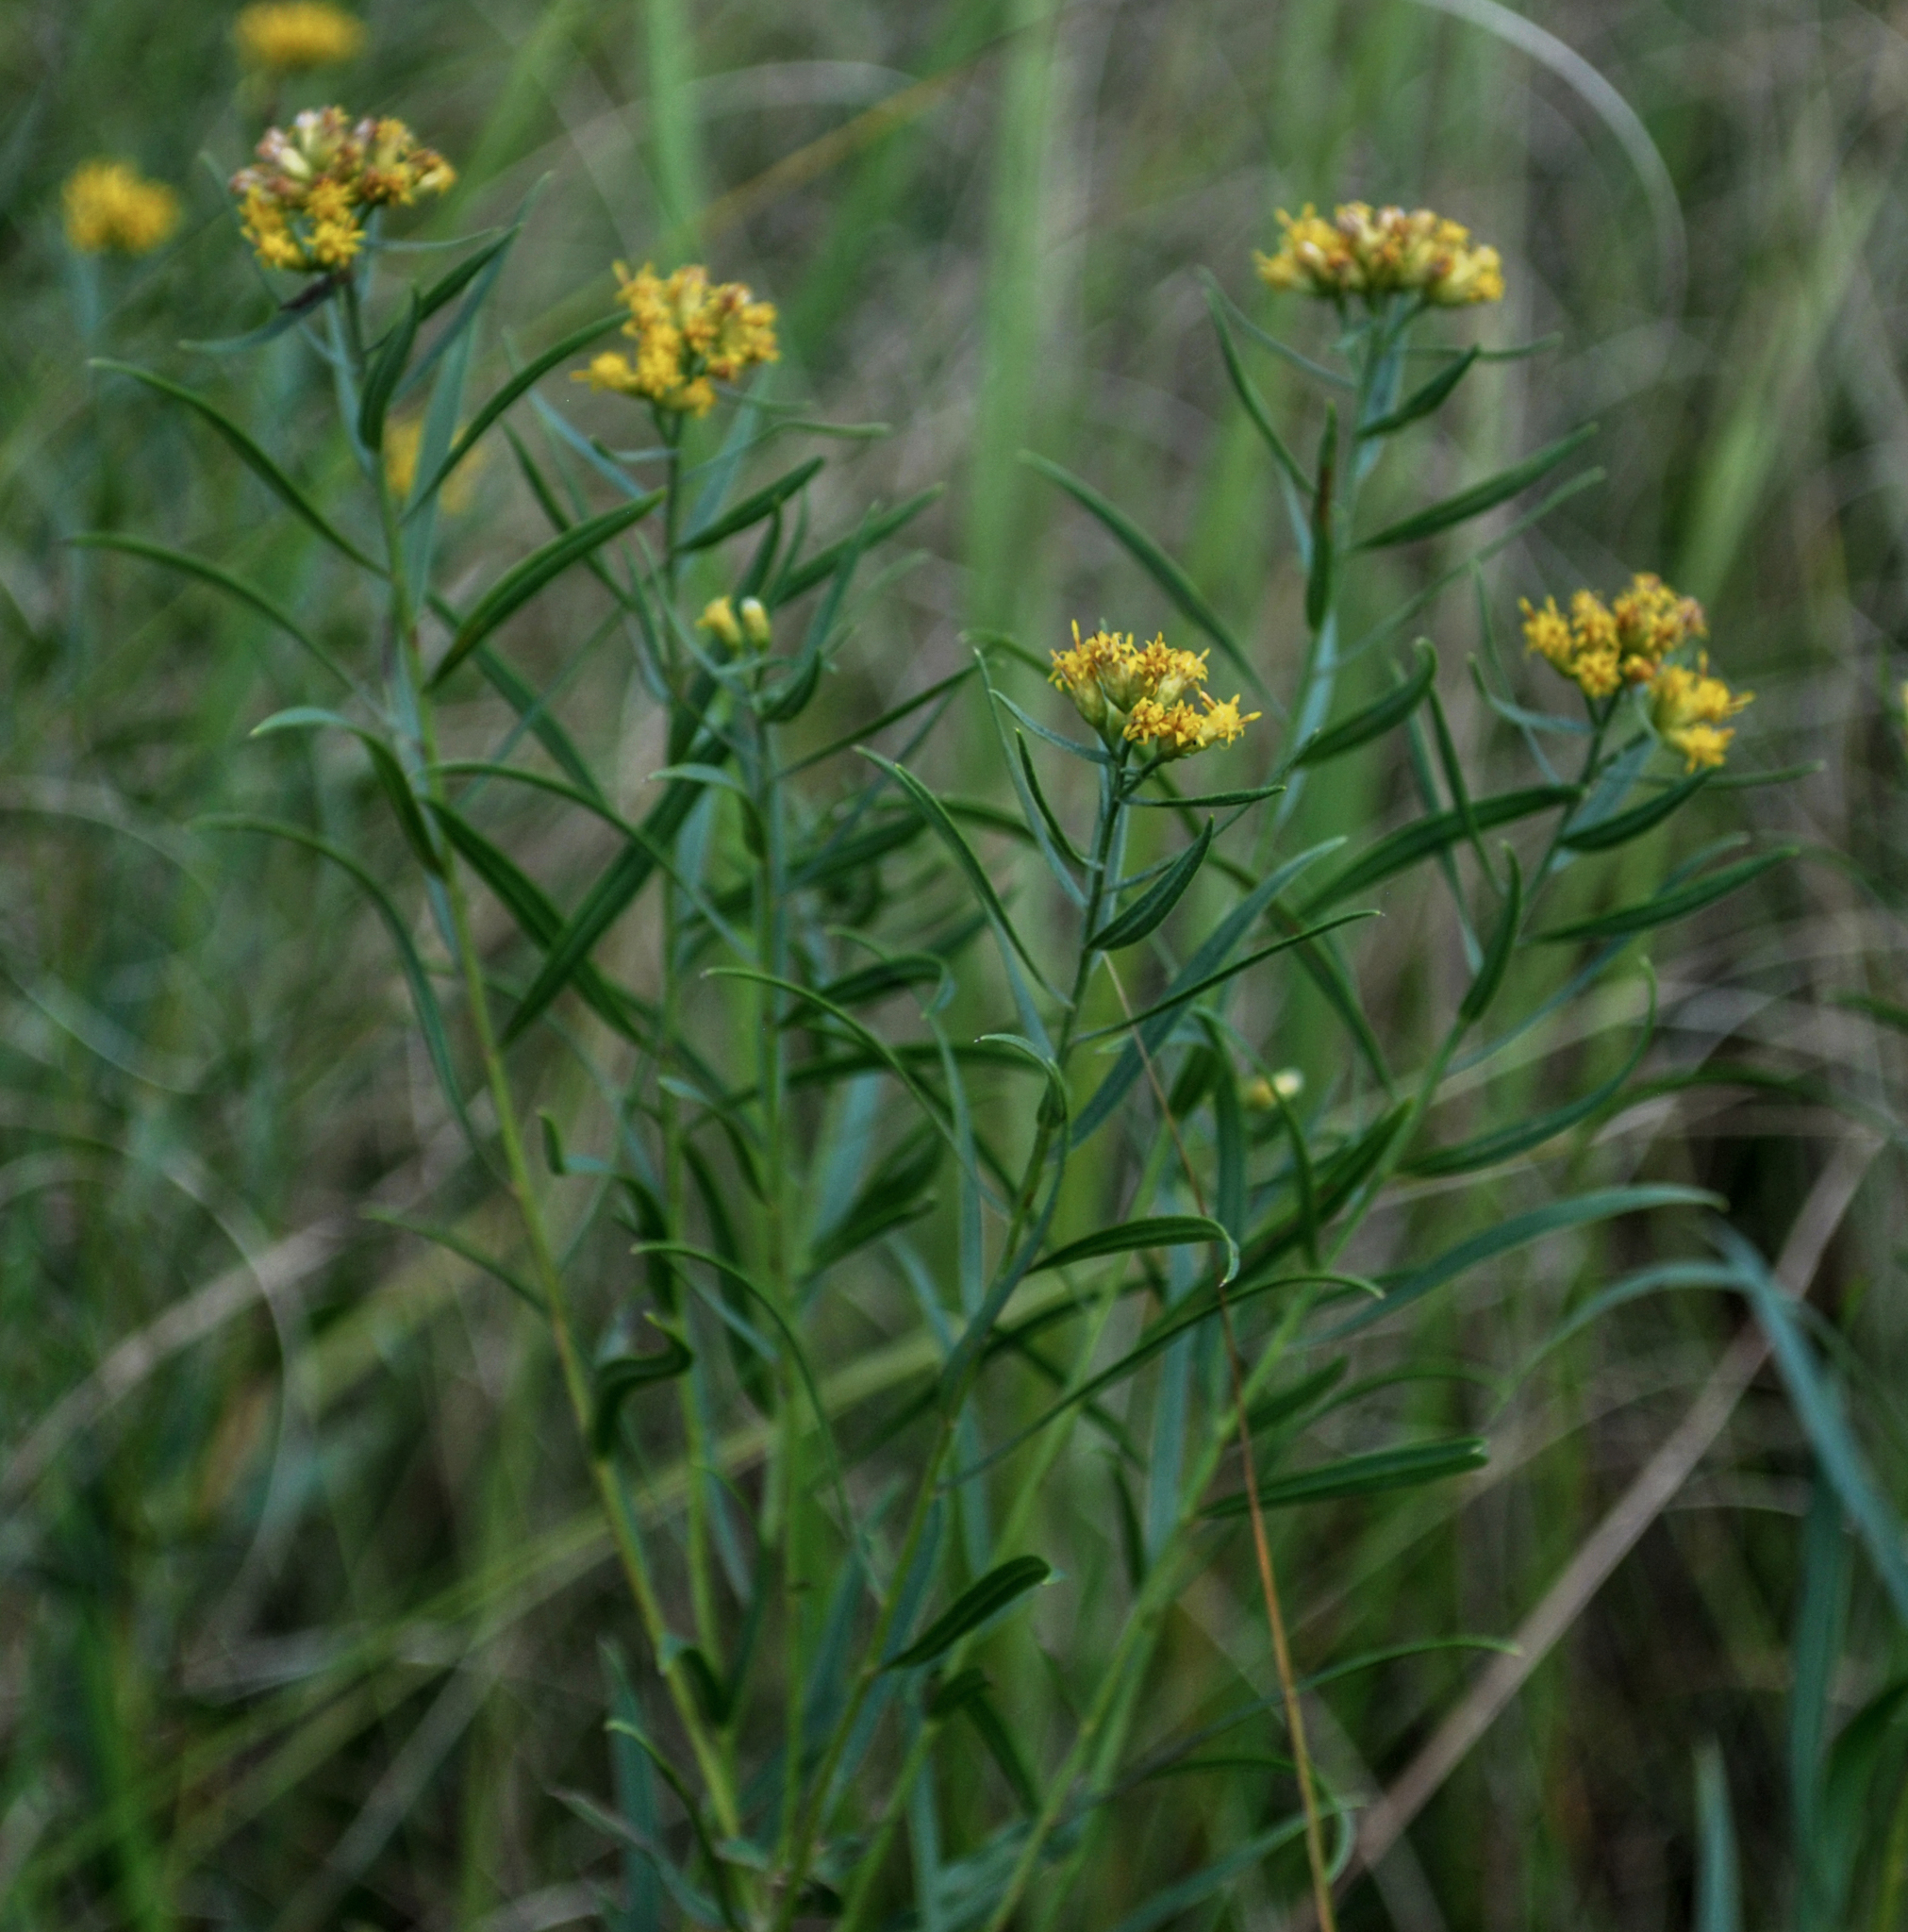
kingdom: Plantae
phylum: Tracheophyta
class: Magnoliopsida
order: Asterales
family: Asteraceae
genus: Euthamia
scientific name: Euthamia graminifolia
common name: Common goldentop
